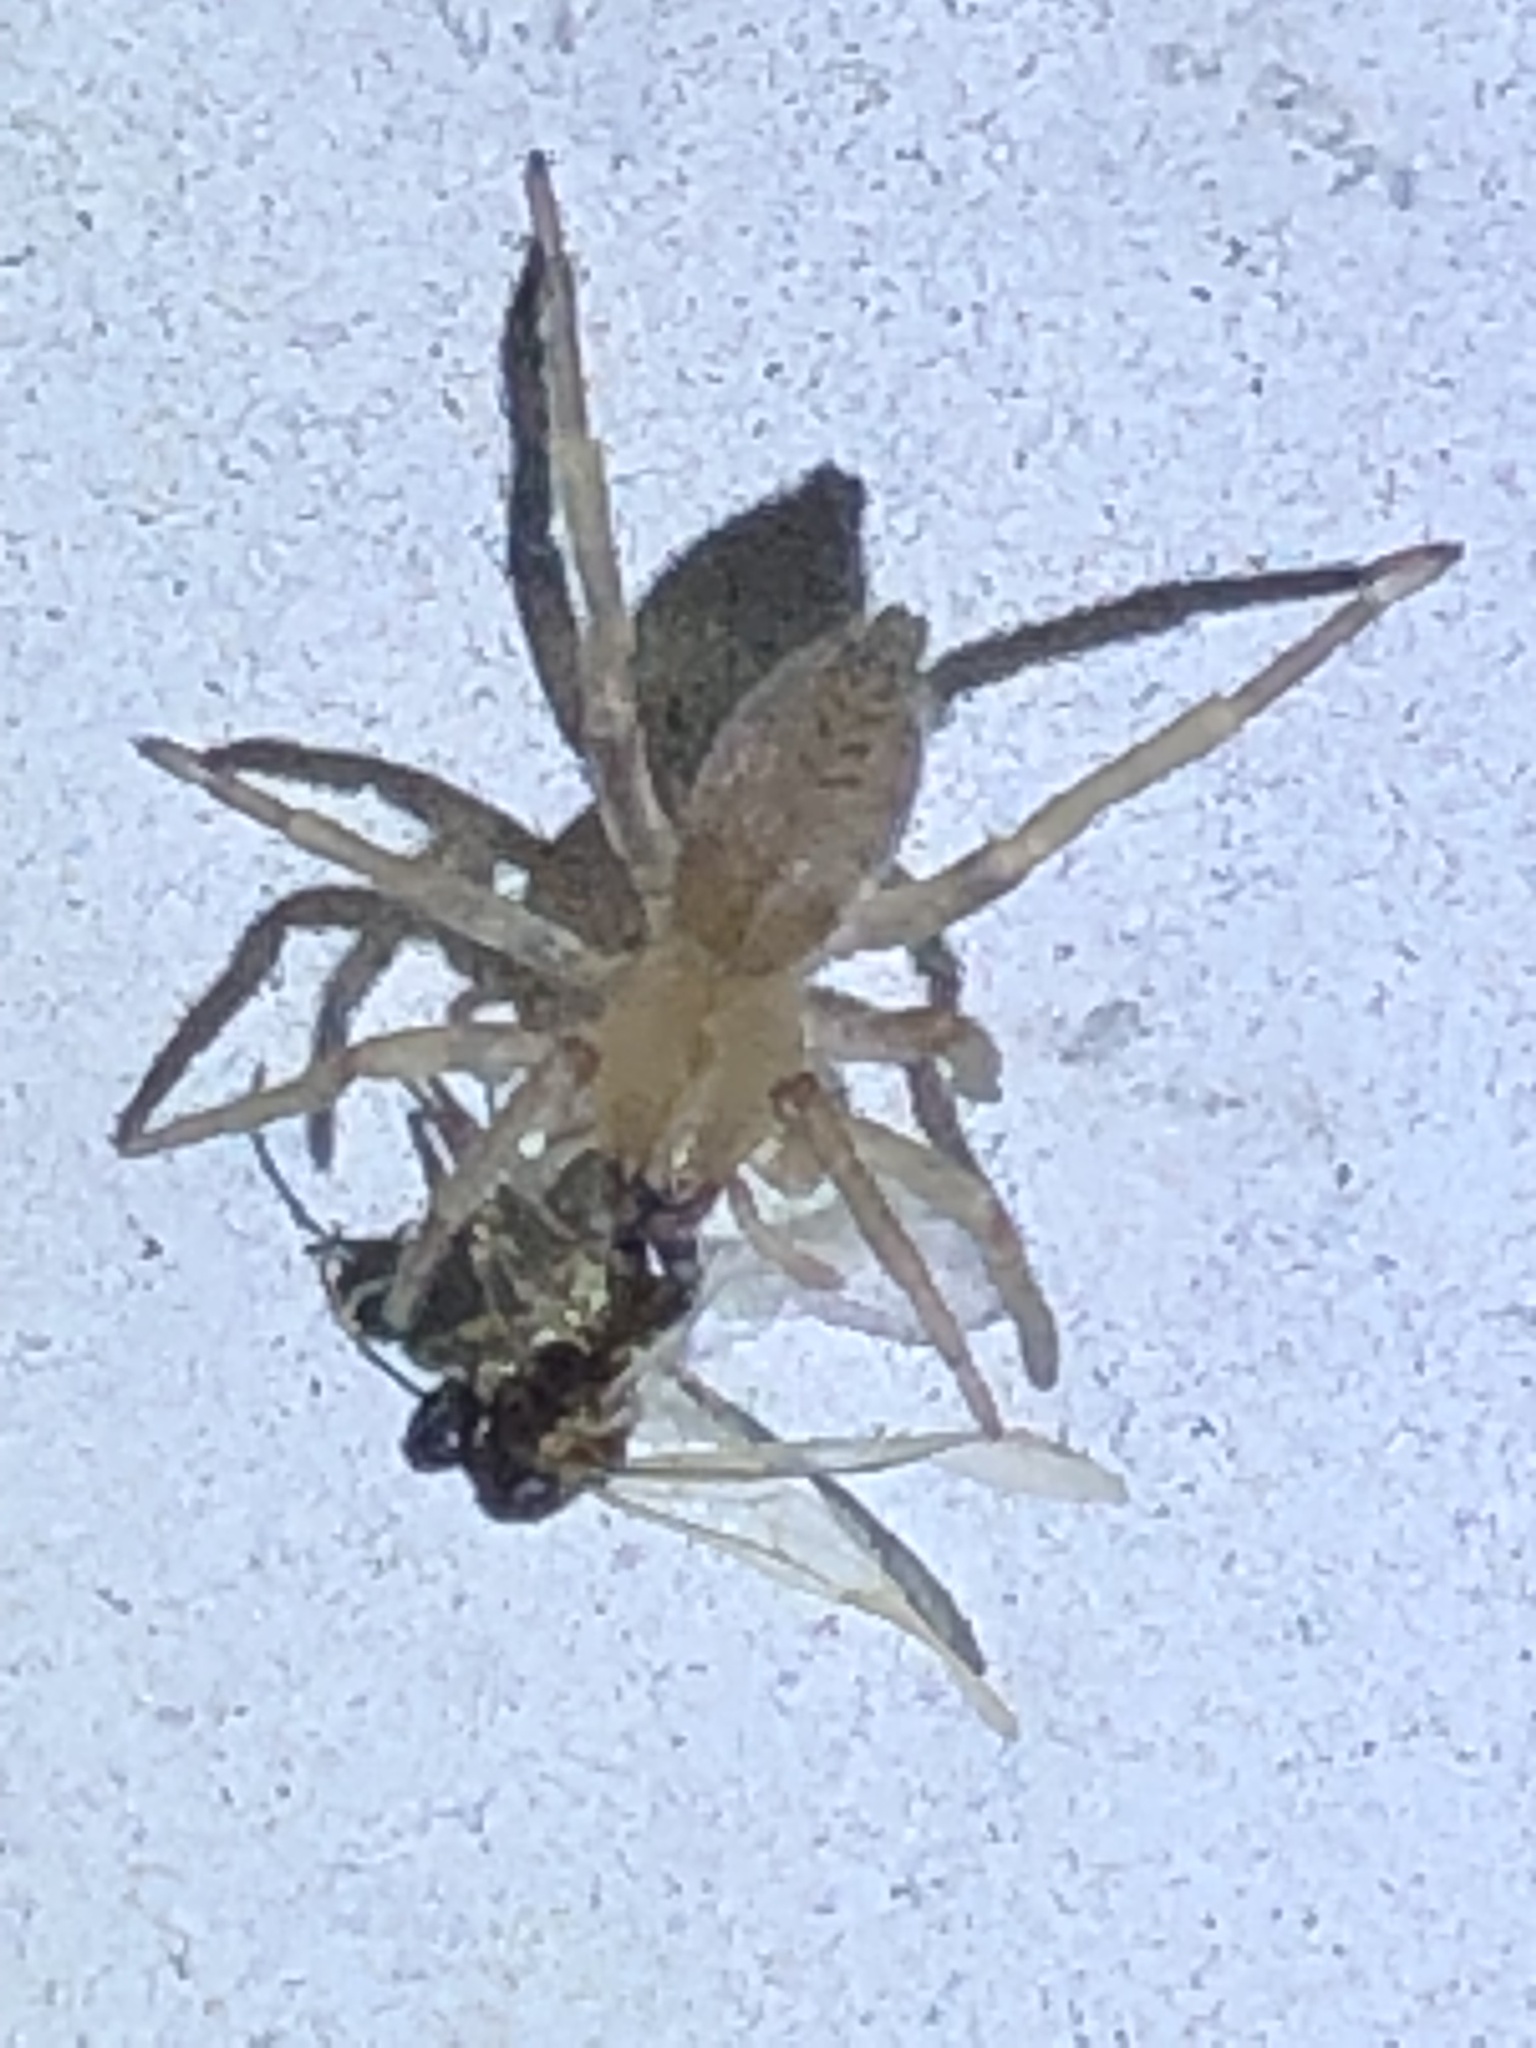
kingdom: Animalia
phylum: Arthropoda
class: Arachnida
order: Araneae
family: Clubionidae
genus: Elaver
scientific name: Elaver excepta
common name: White sac spider
